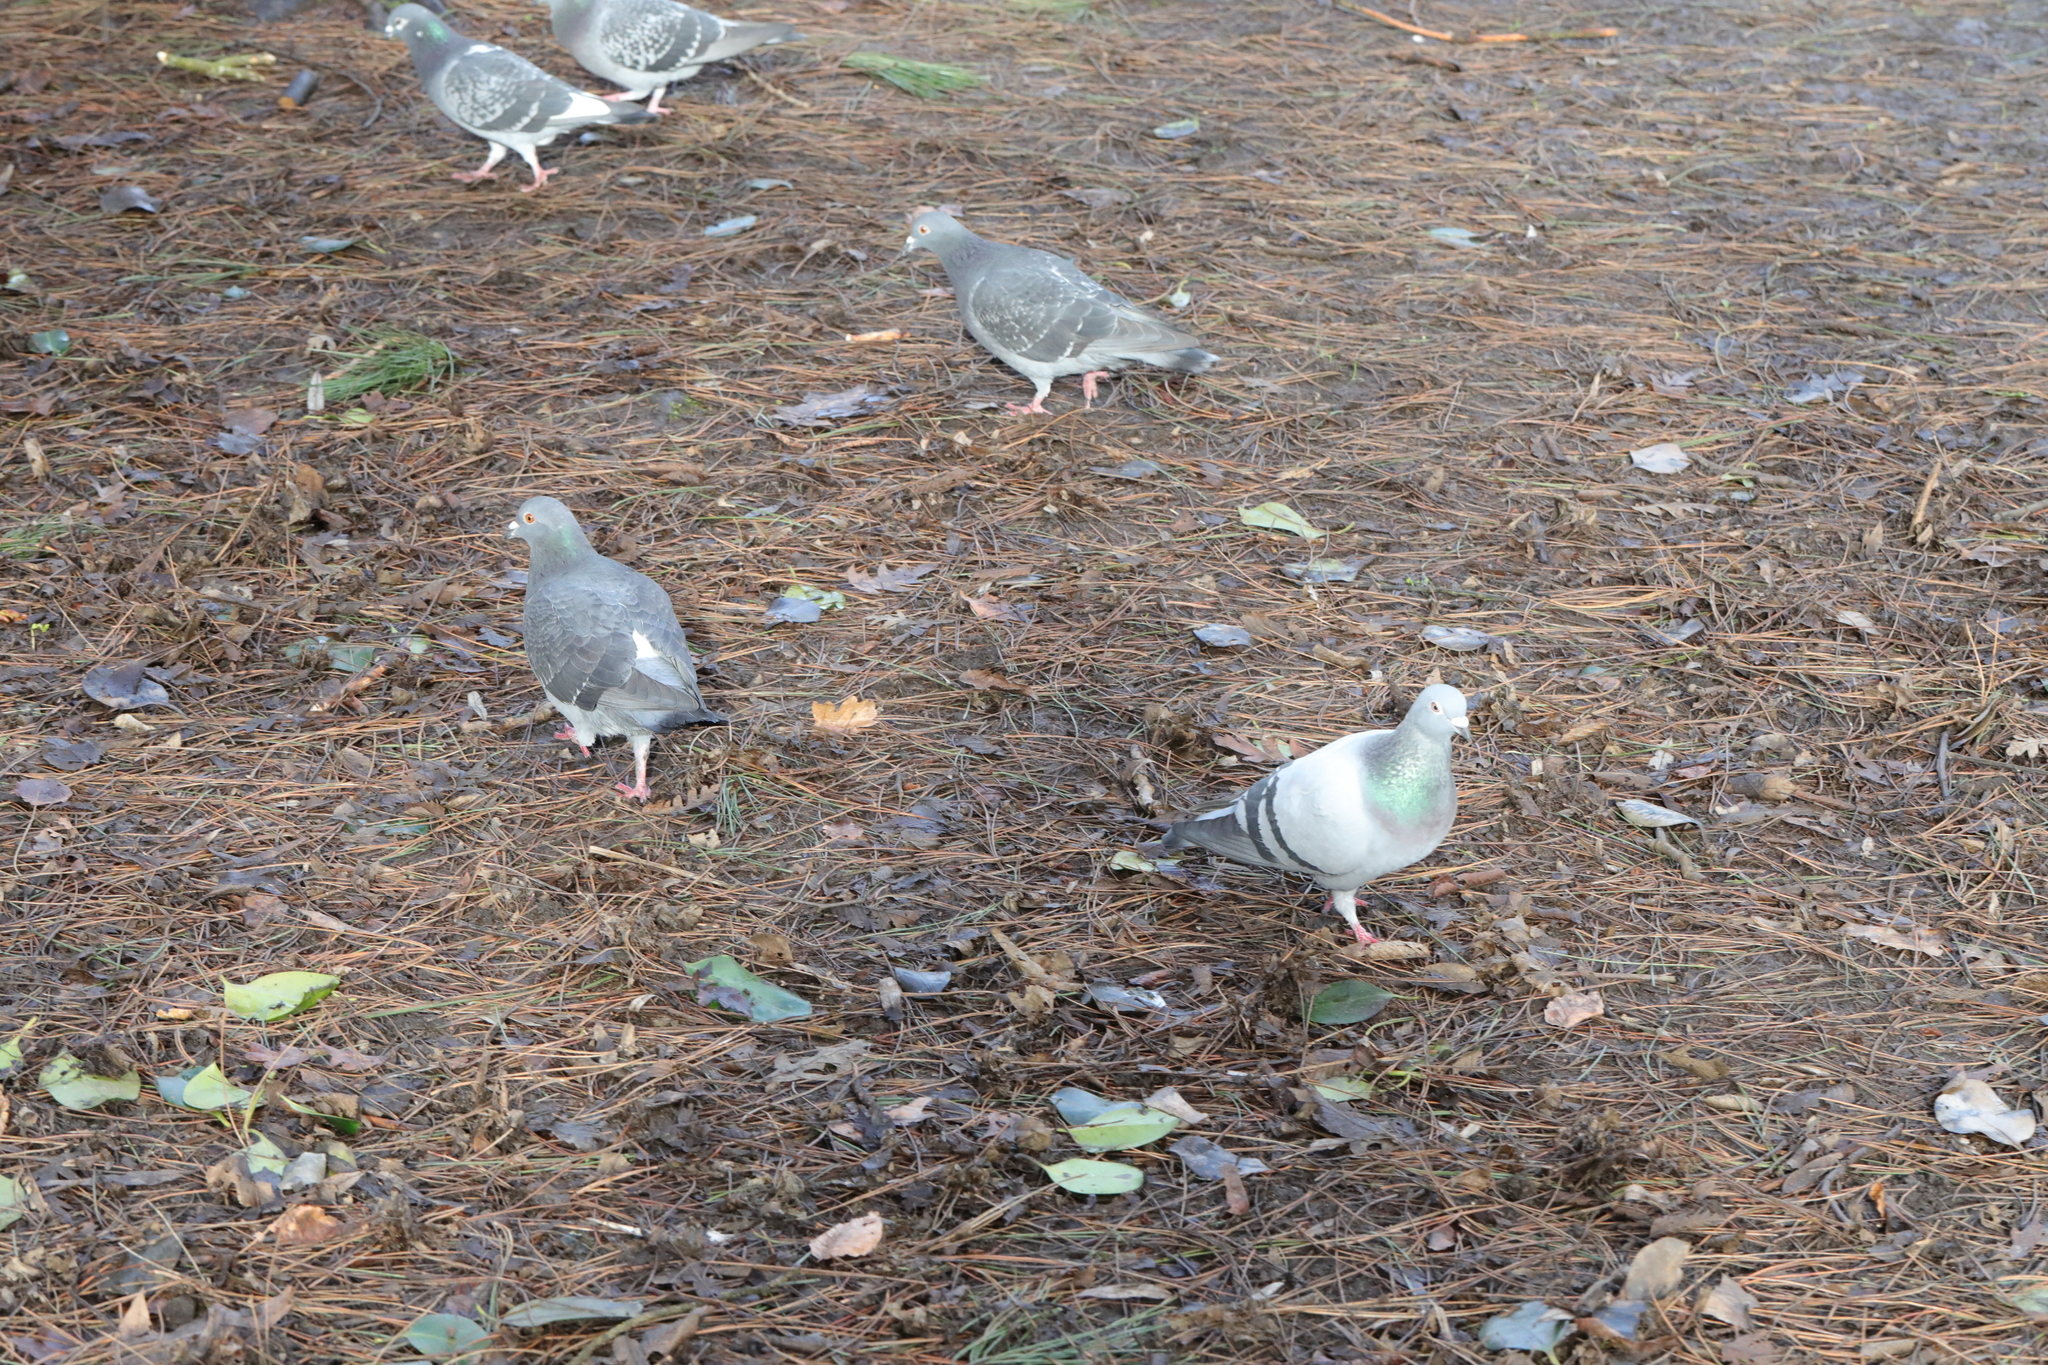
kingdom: Animalia
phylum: Chordata
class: Aves
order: Columbiformes
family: Columbidae
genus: Columba
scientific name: Columba livia
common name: Rock pigeon
